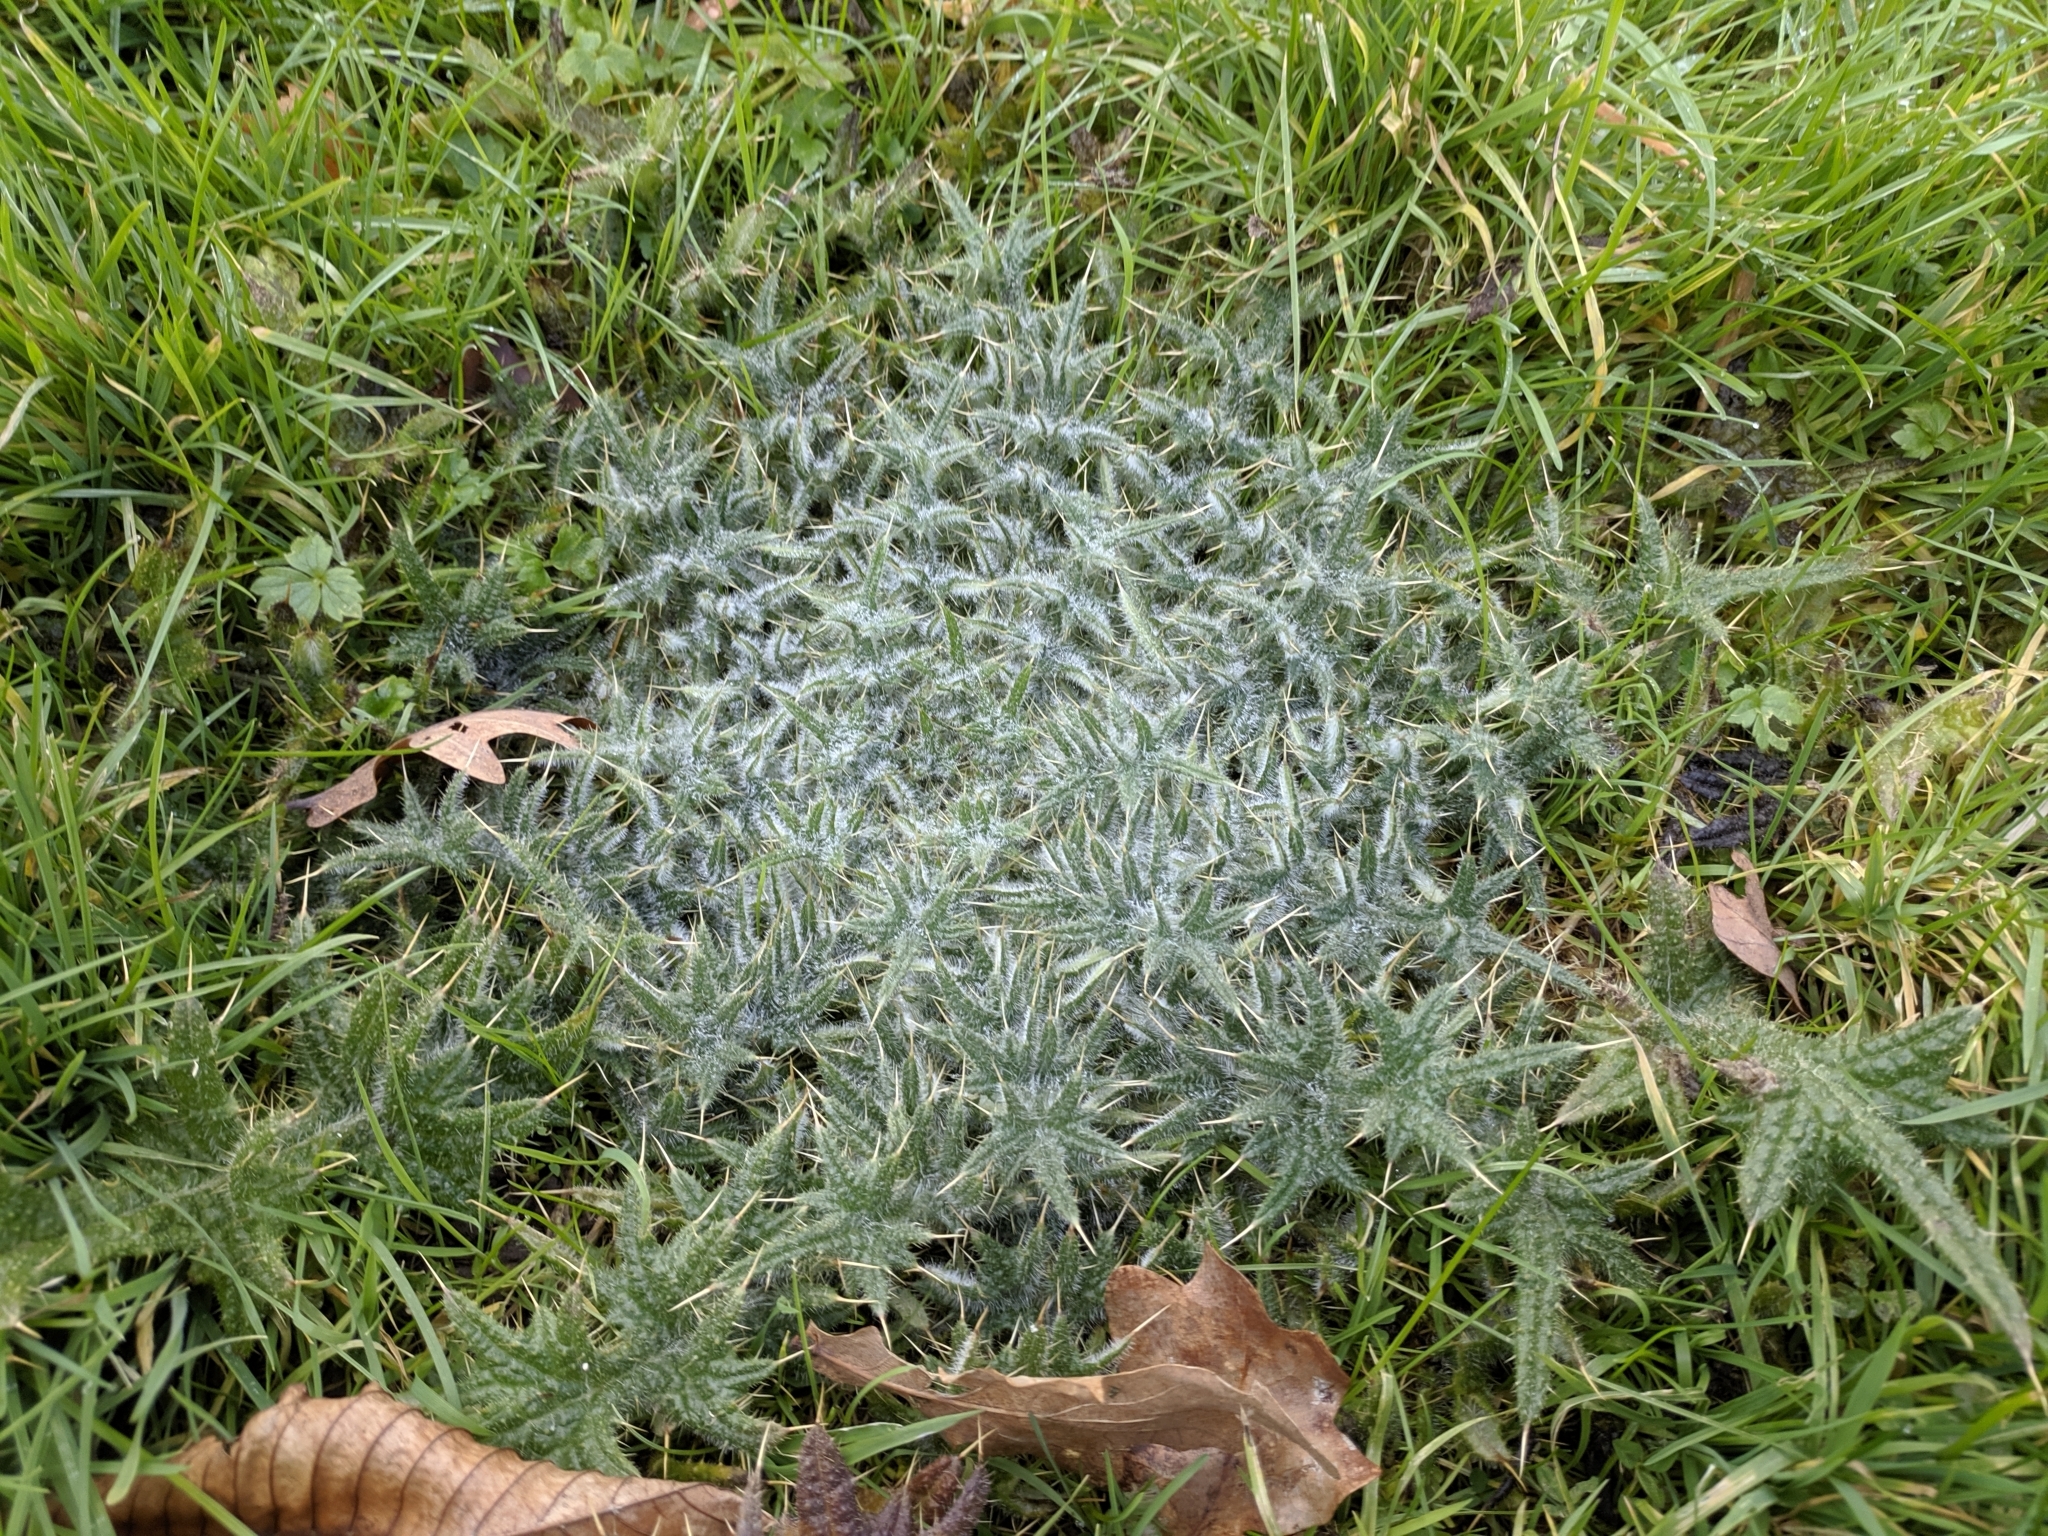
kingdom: Plantae
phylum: Tracheophyta
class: Magnoliopsida
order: Asterales
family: Asteraceae
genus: Cirsium
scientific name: Cirsium vulgare
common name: Bull thistle
